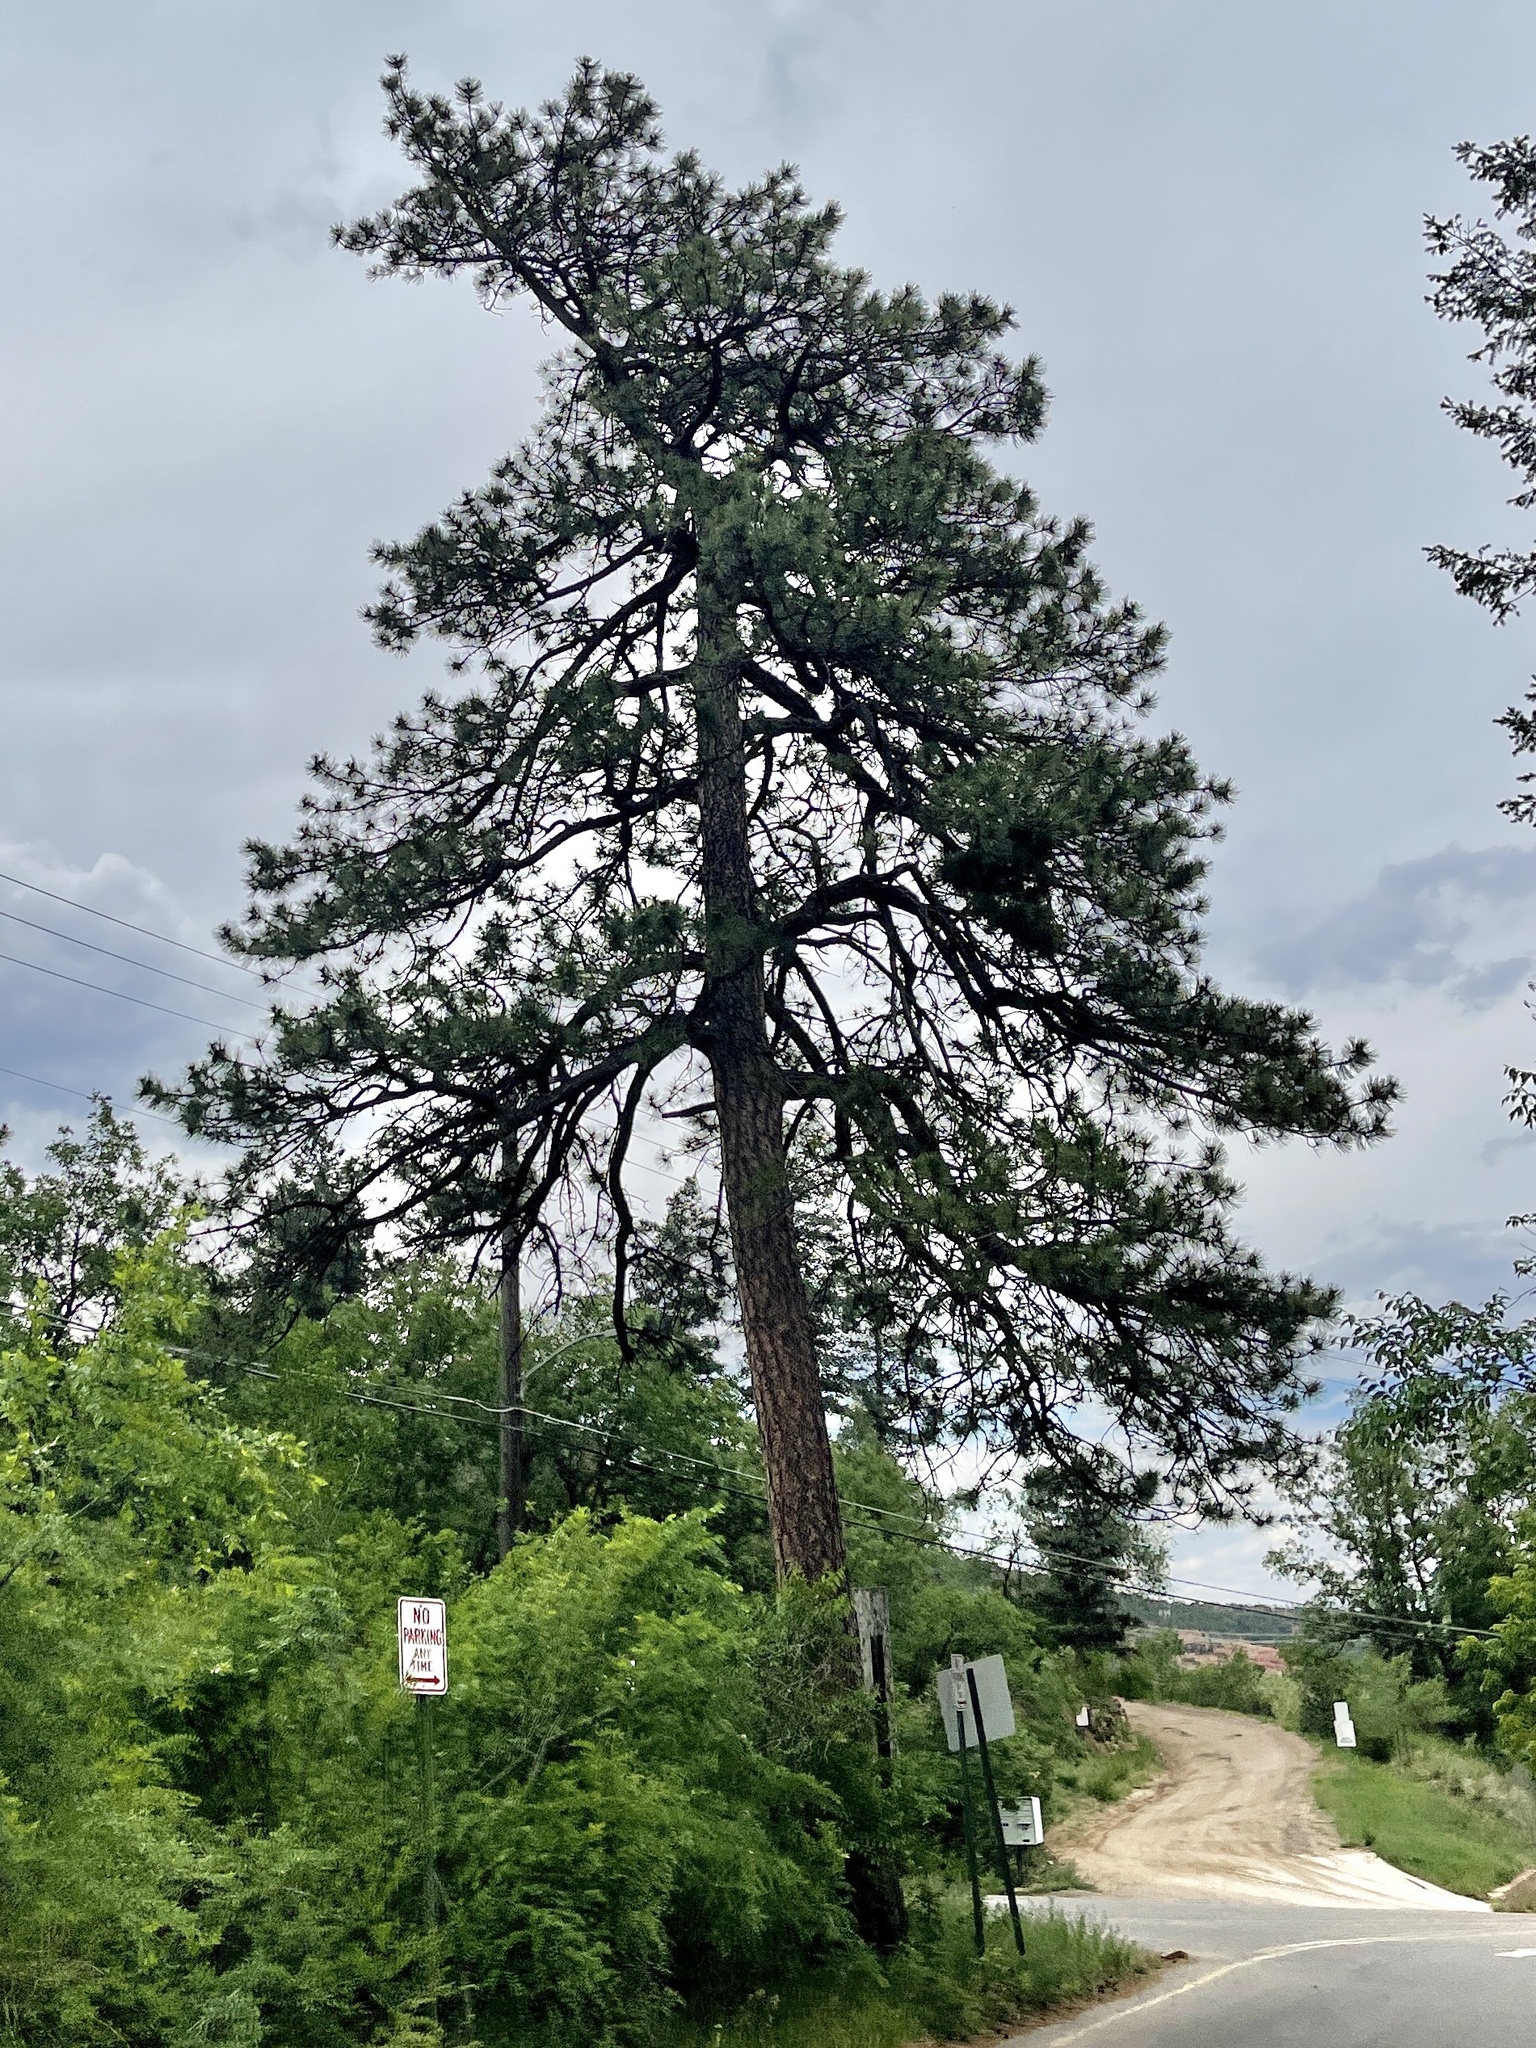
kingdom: Plantae
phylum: Tracheophyta
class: Pinopsida
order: Pinales
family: Pinaceae
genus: Pinus
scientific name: Pinus ponderosa
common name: Western yellow-pine
